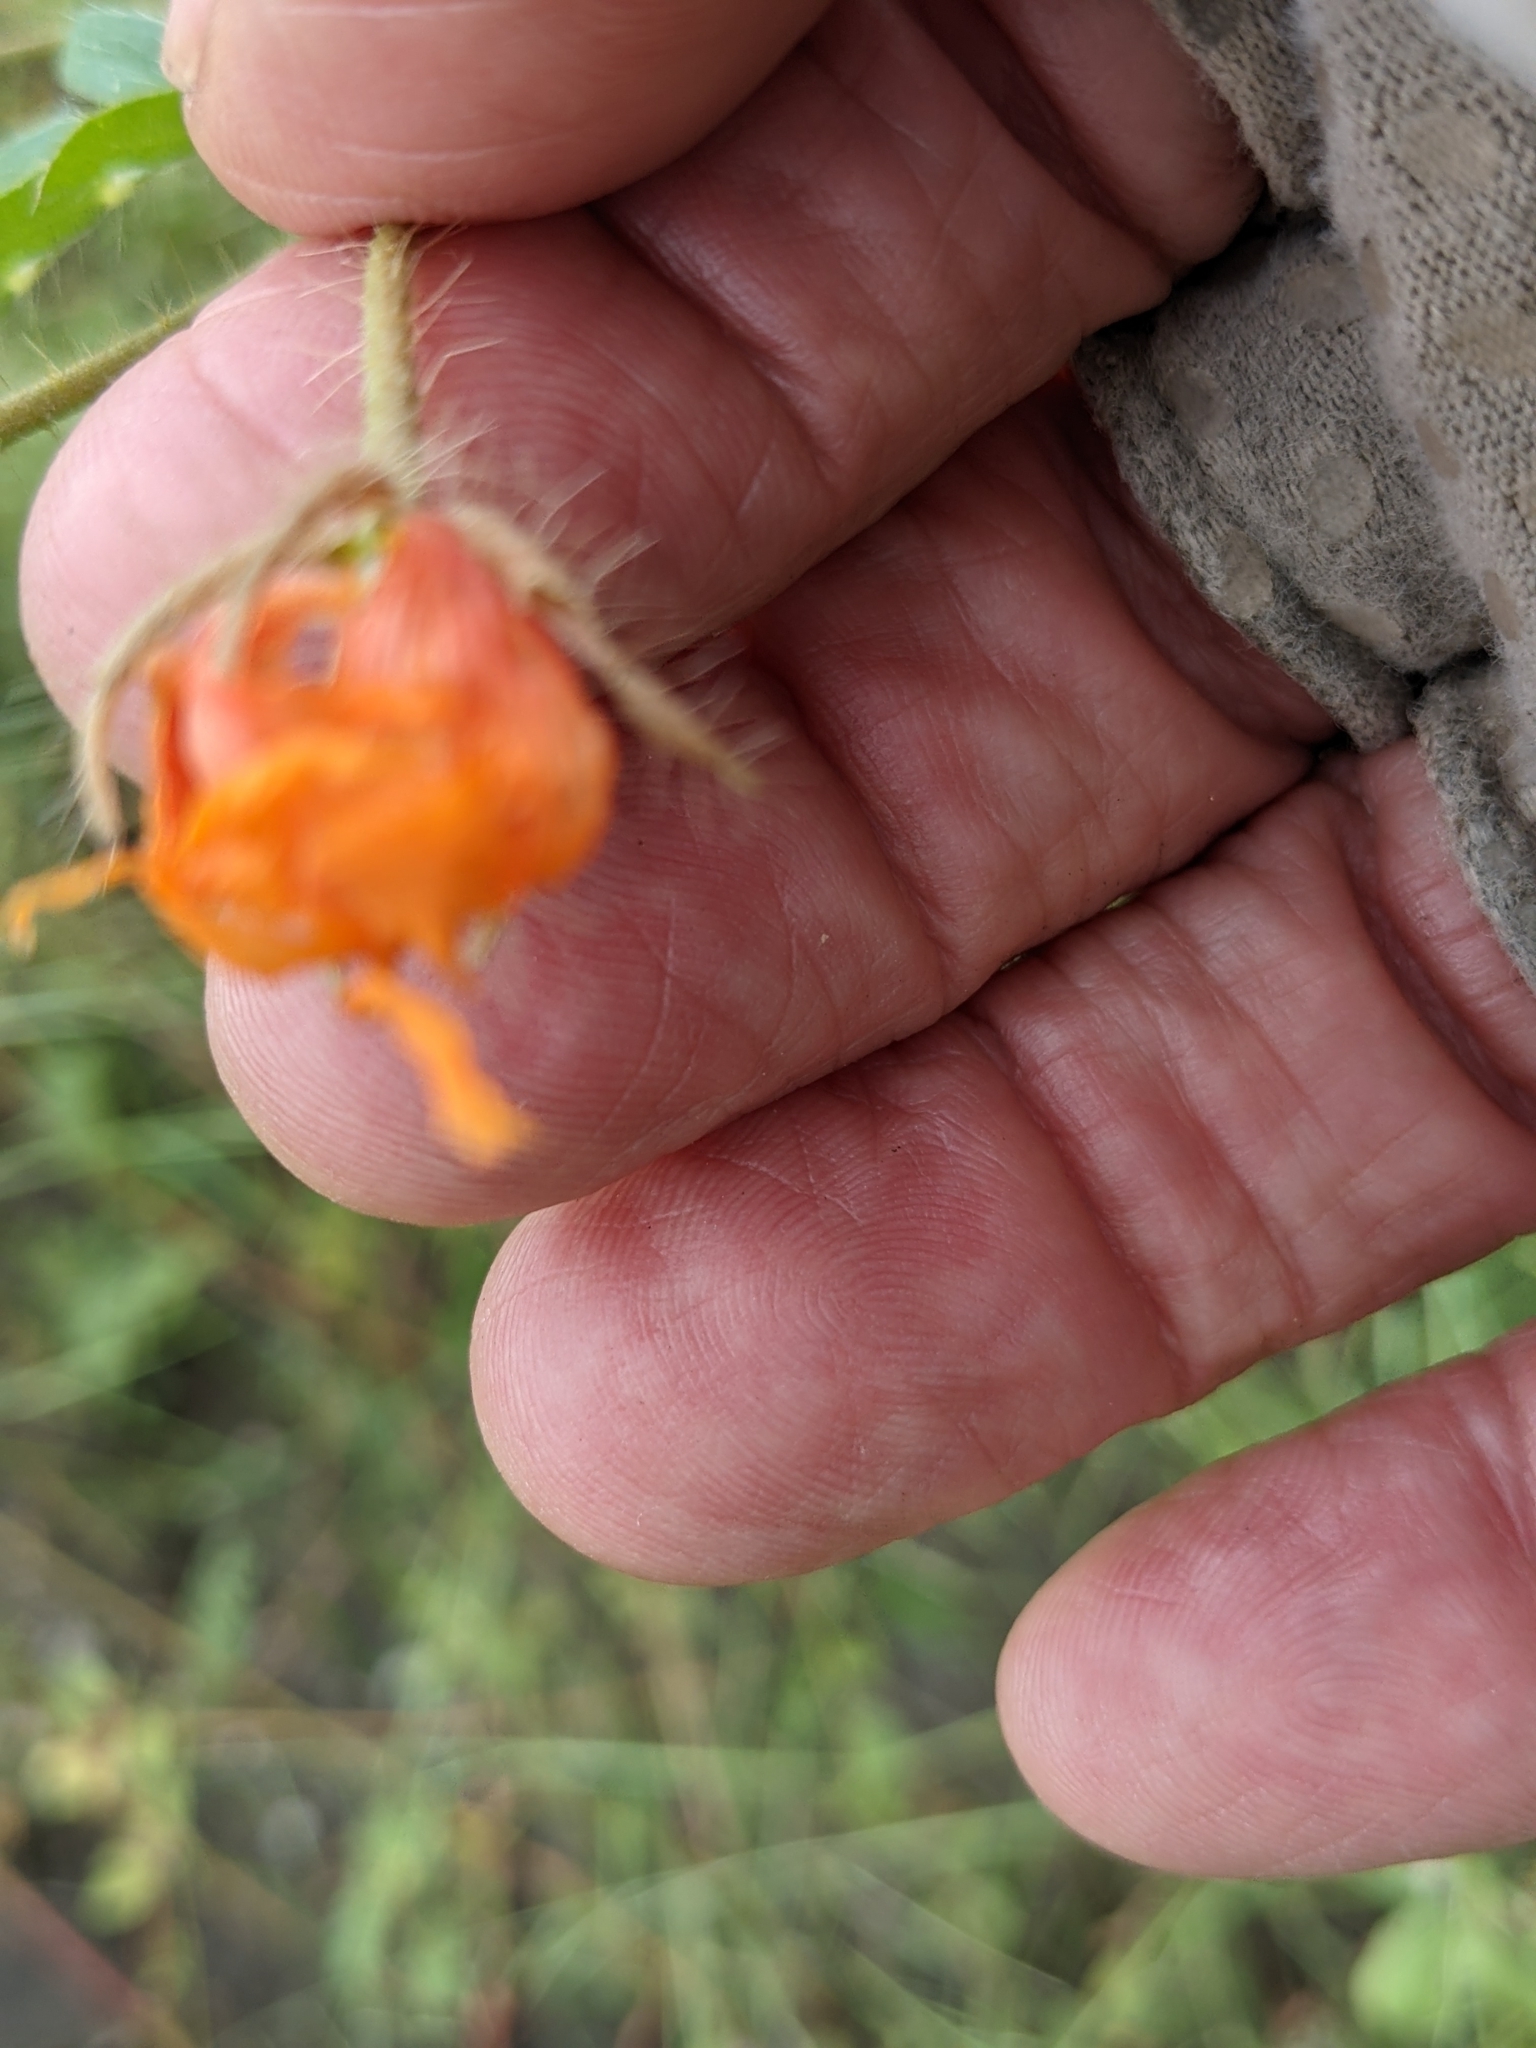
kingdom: Plantae
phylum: Tracheophyta
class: Magnoliopsida
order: Zygophyllales
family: Zygophyllaceae
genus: Kallstroemia
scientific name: Kallstroemia grandiflora
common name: Arizona-poppy
